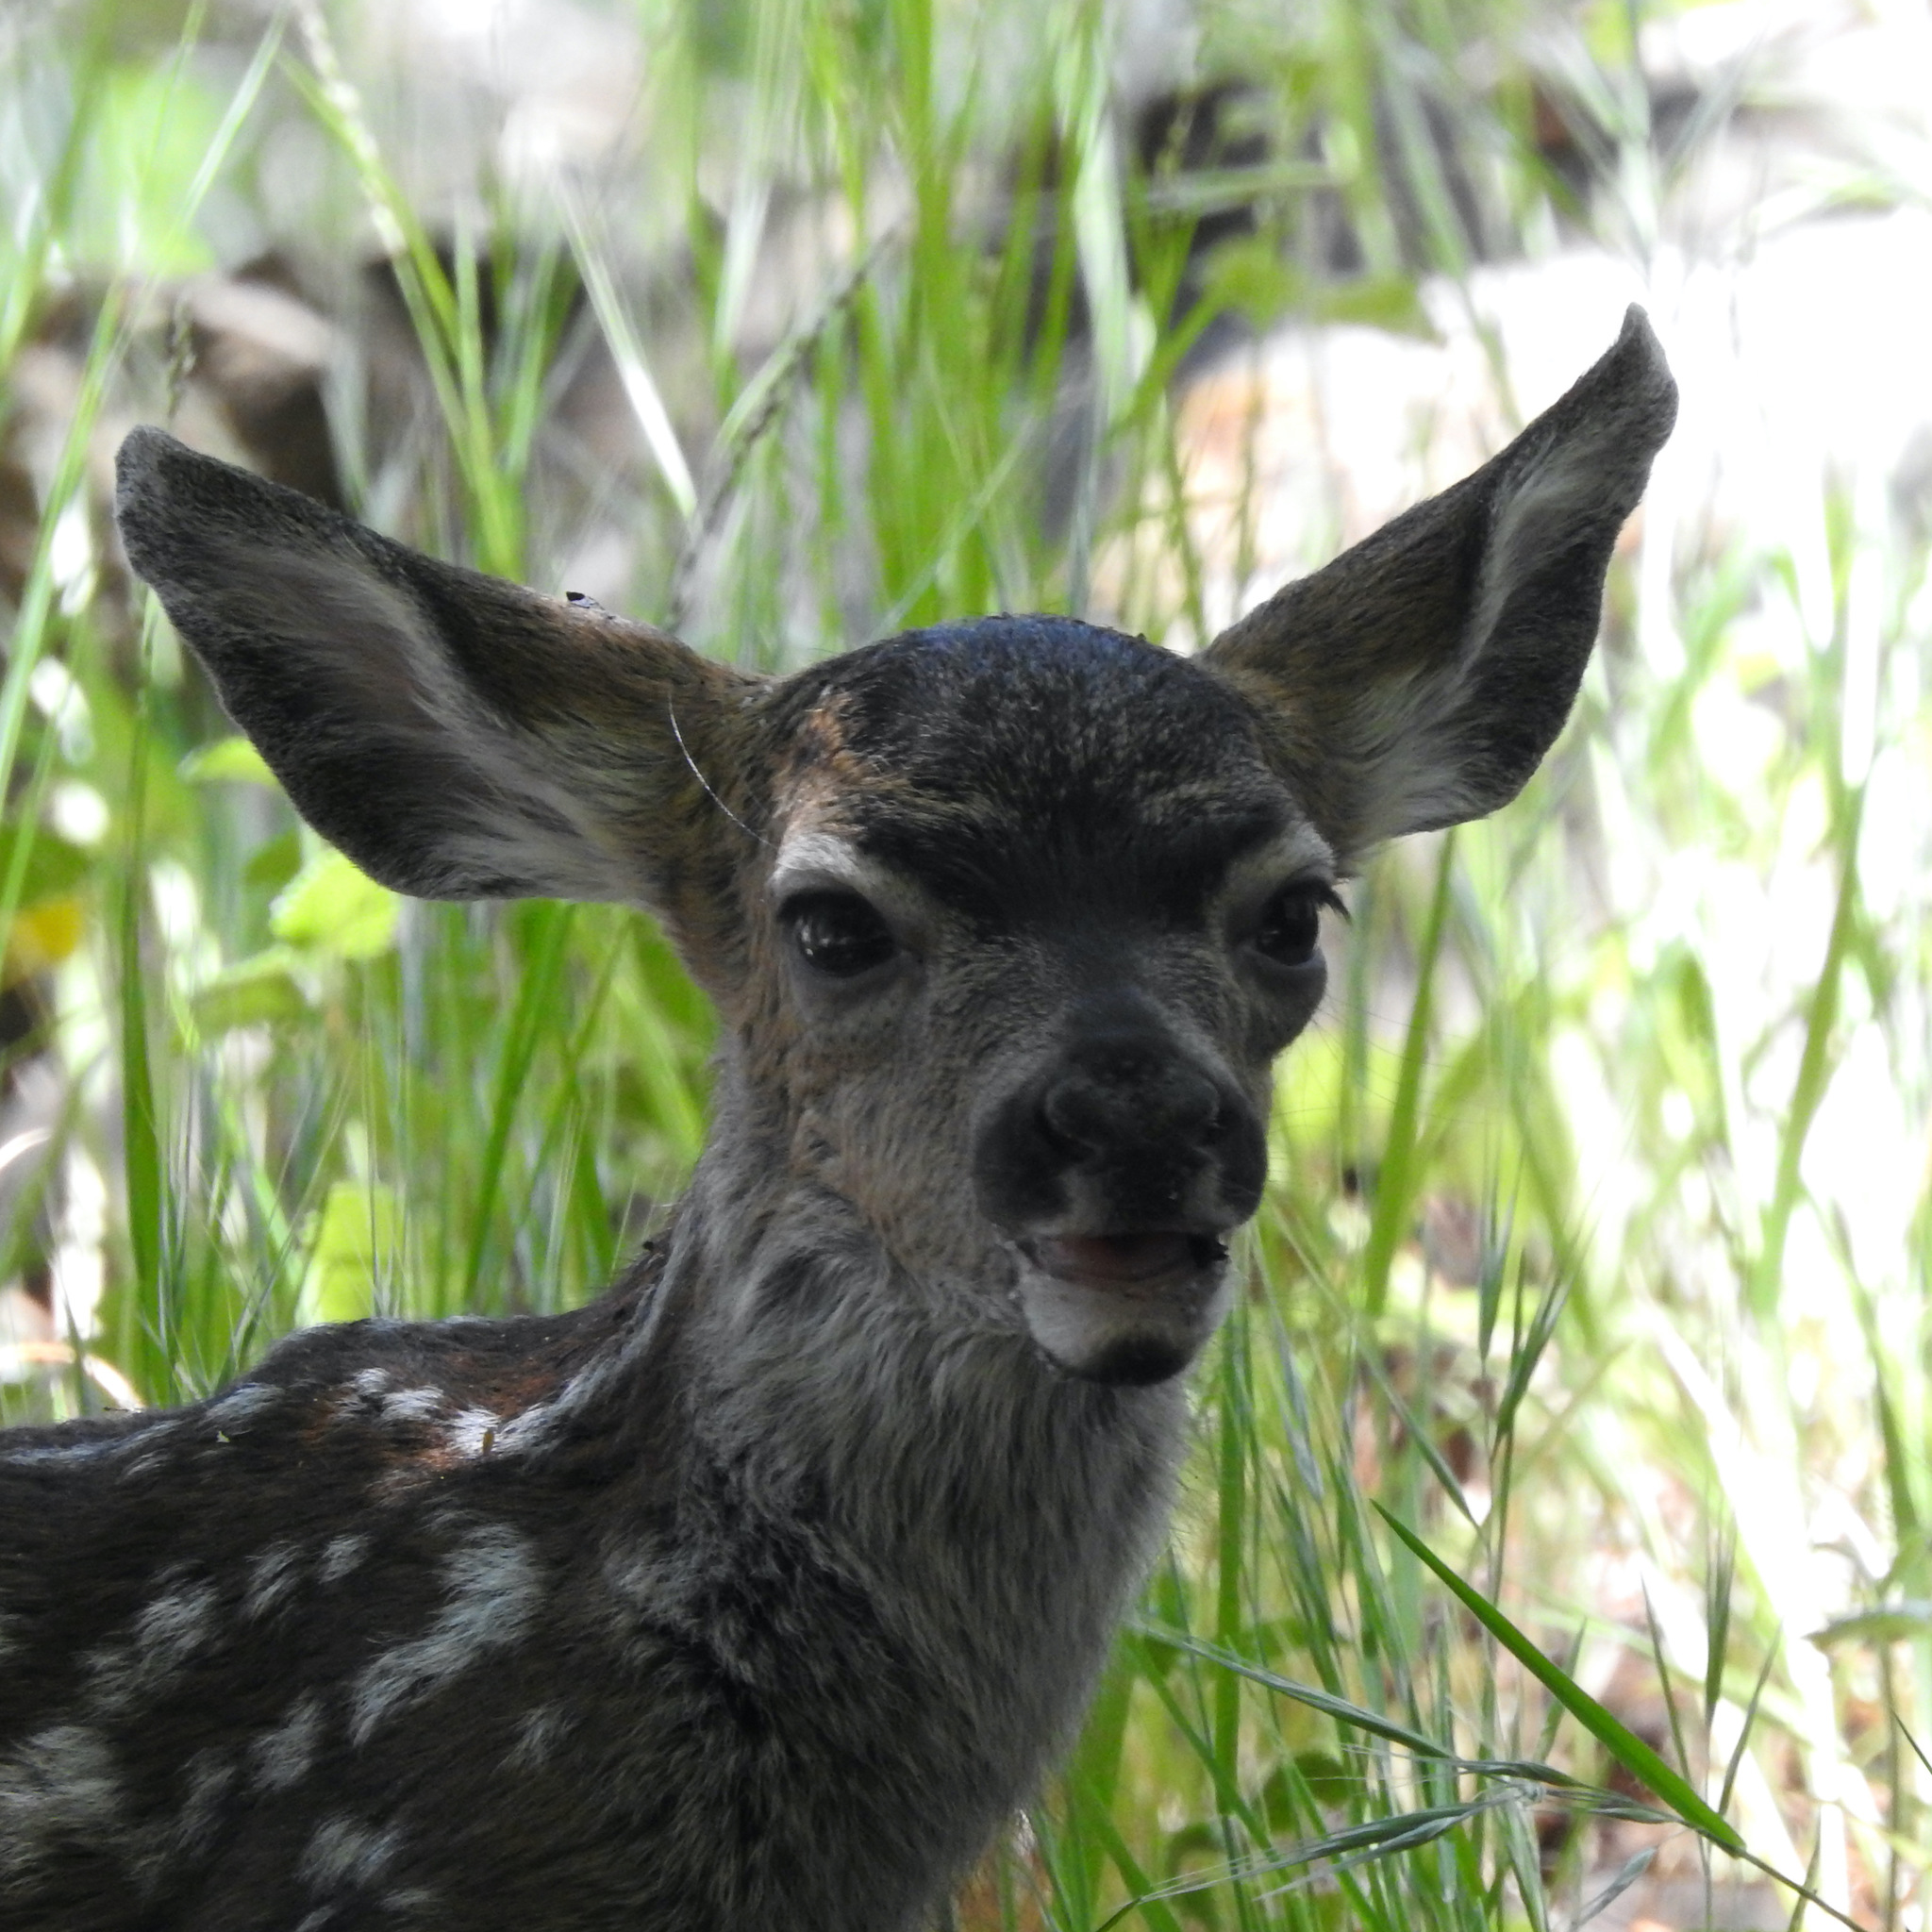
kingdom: Animalia
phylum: Chordata
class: Mammalia
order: Artiodactyla
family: Cervidae
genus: Odocoileus
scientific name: Odocoileus hemionus
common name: Mule deer
